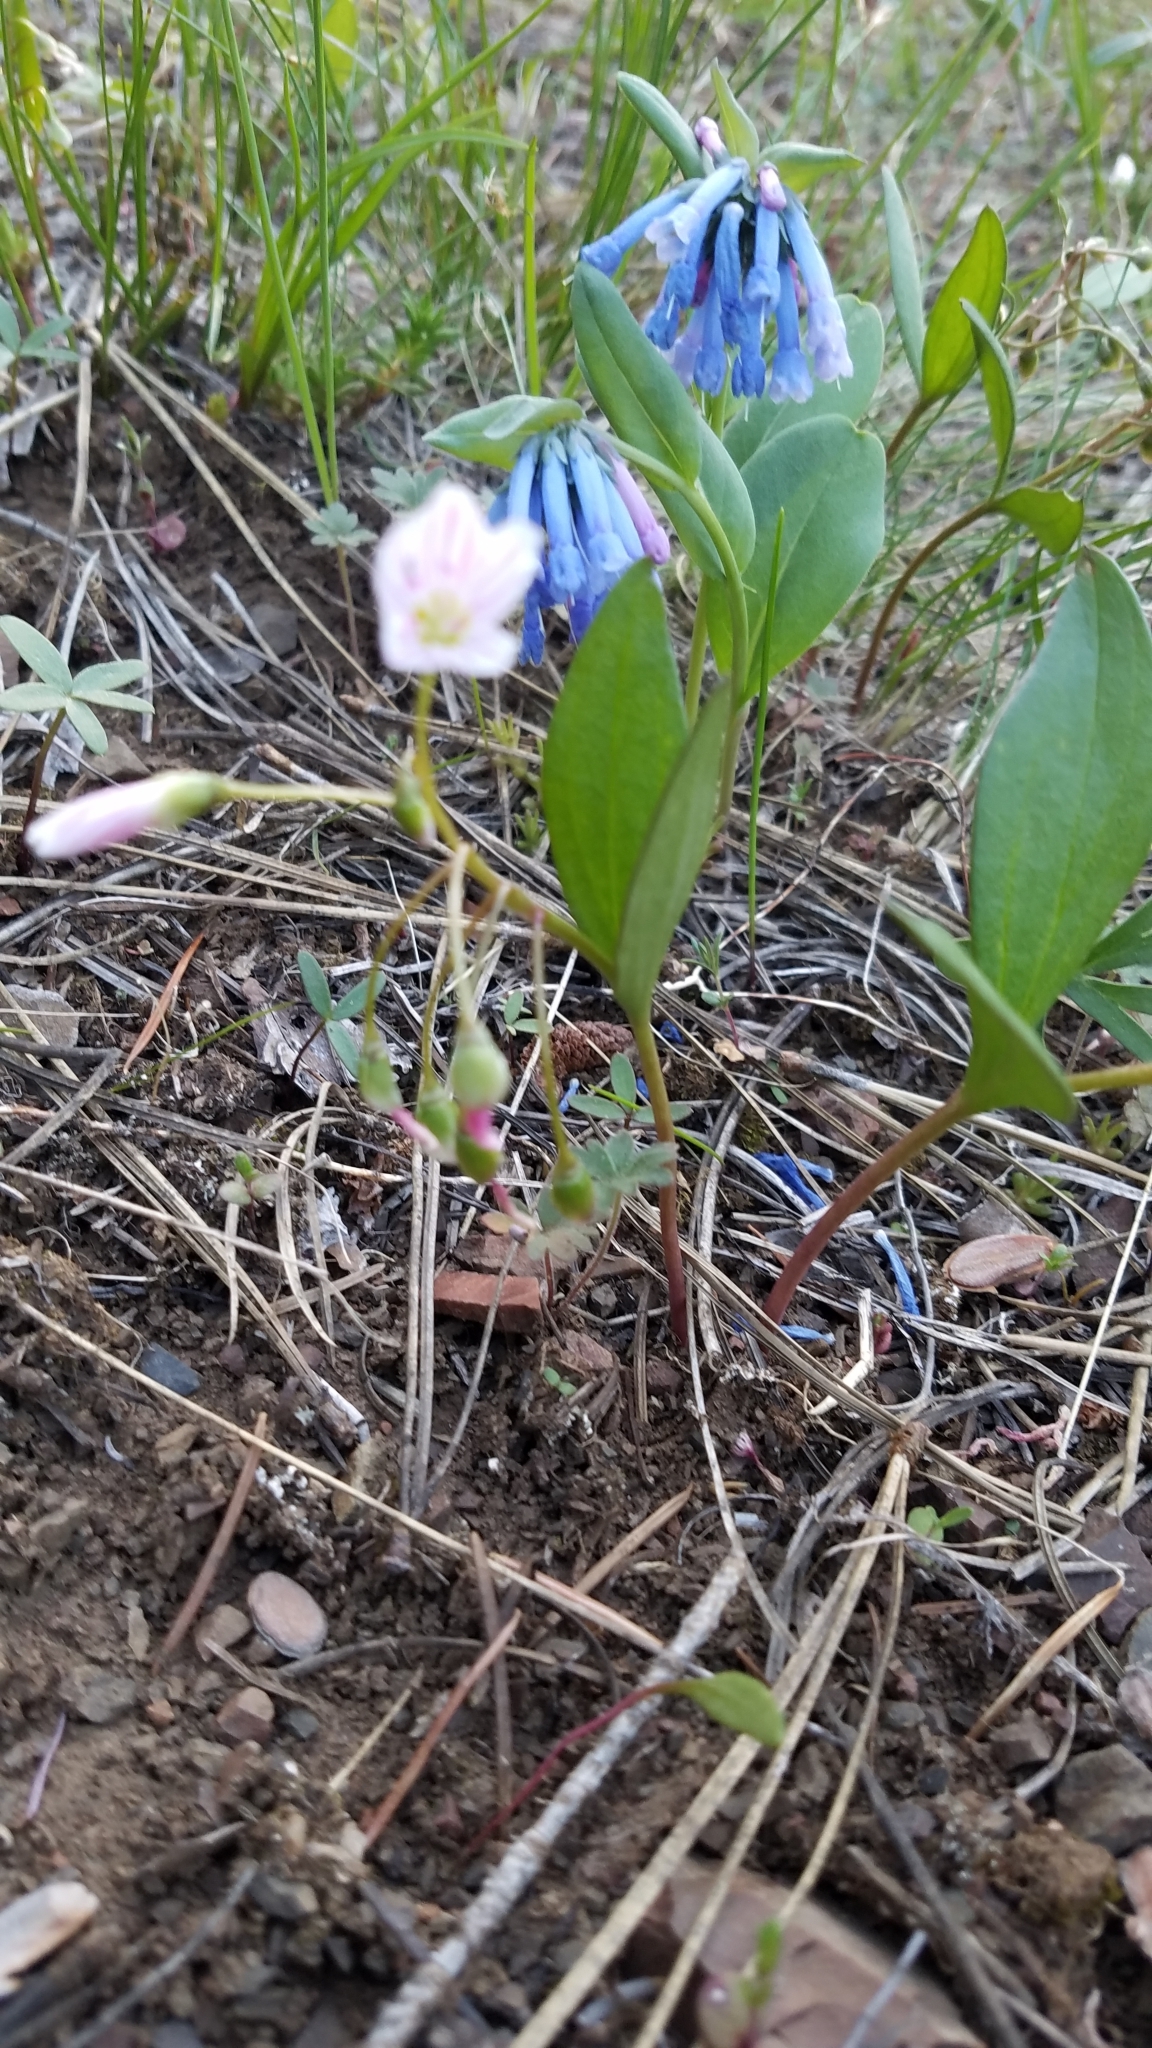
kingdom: Plantae
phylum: Tracheophyta
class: Magnoliopsida
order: Caryophyllales
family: Montiaceae
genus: Claytonia
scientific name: Claytonia lanceolata
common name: Western spring-beauty
